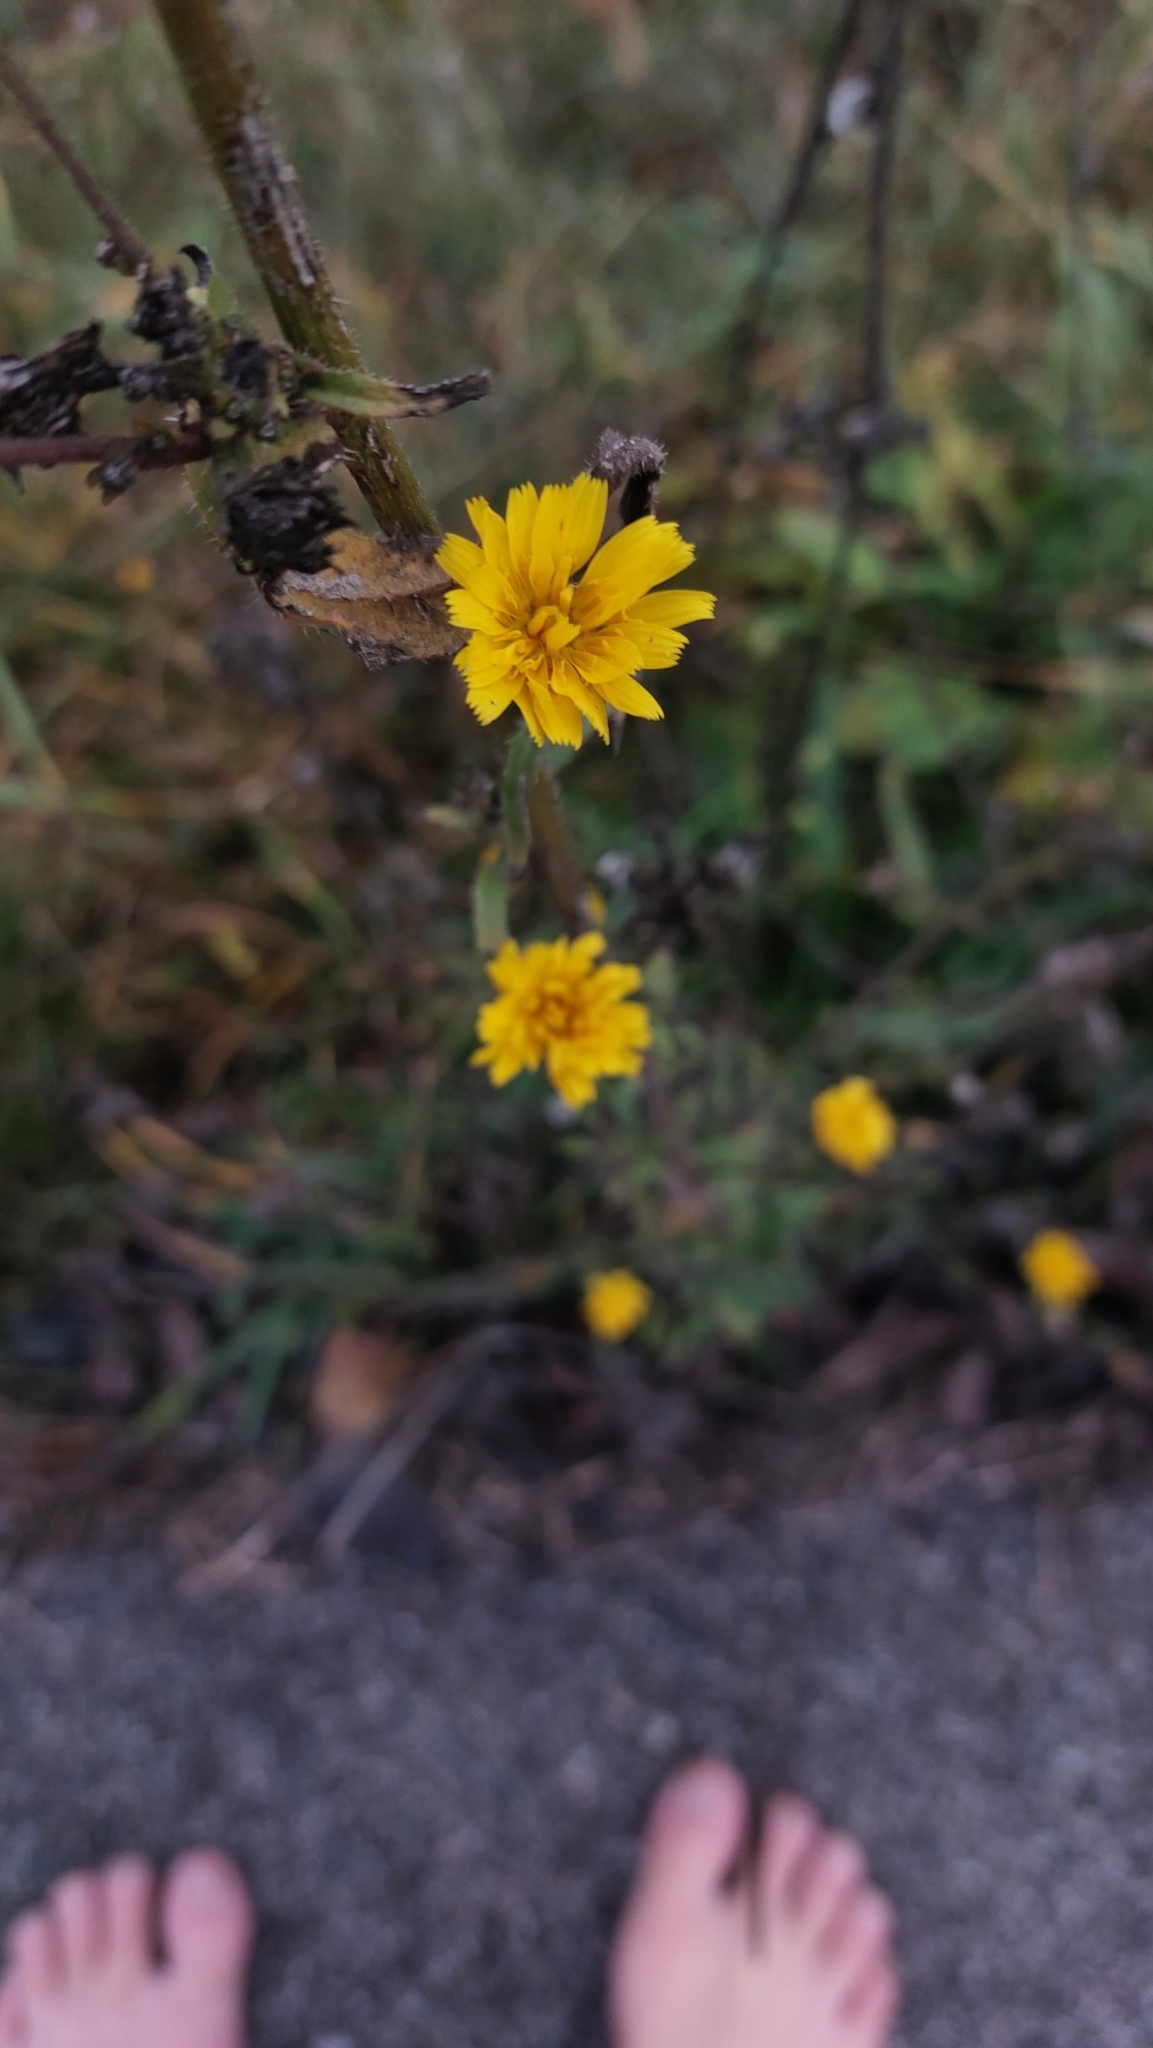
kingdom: Plantae
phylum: Tracheophyta
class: Magnoliopsida
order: Asterales
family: Asteraceae
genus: Picris
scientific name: Picris hieracioides
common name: Hawkweed oxtongue
